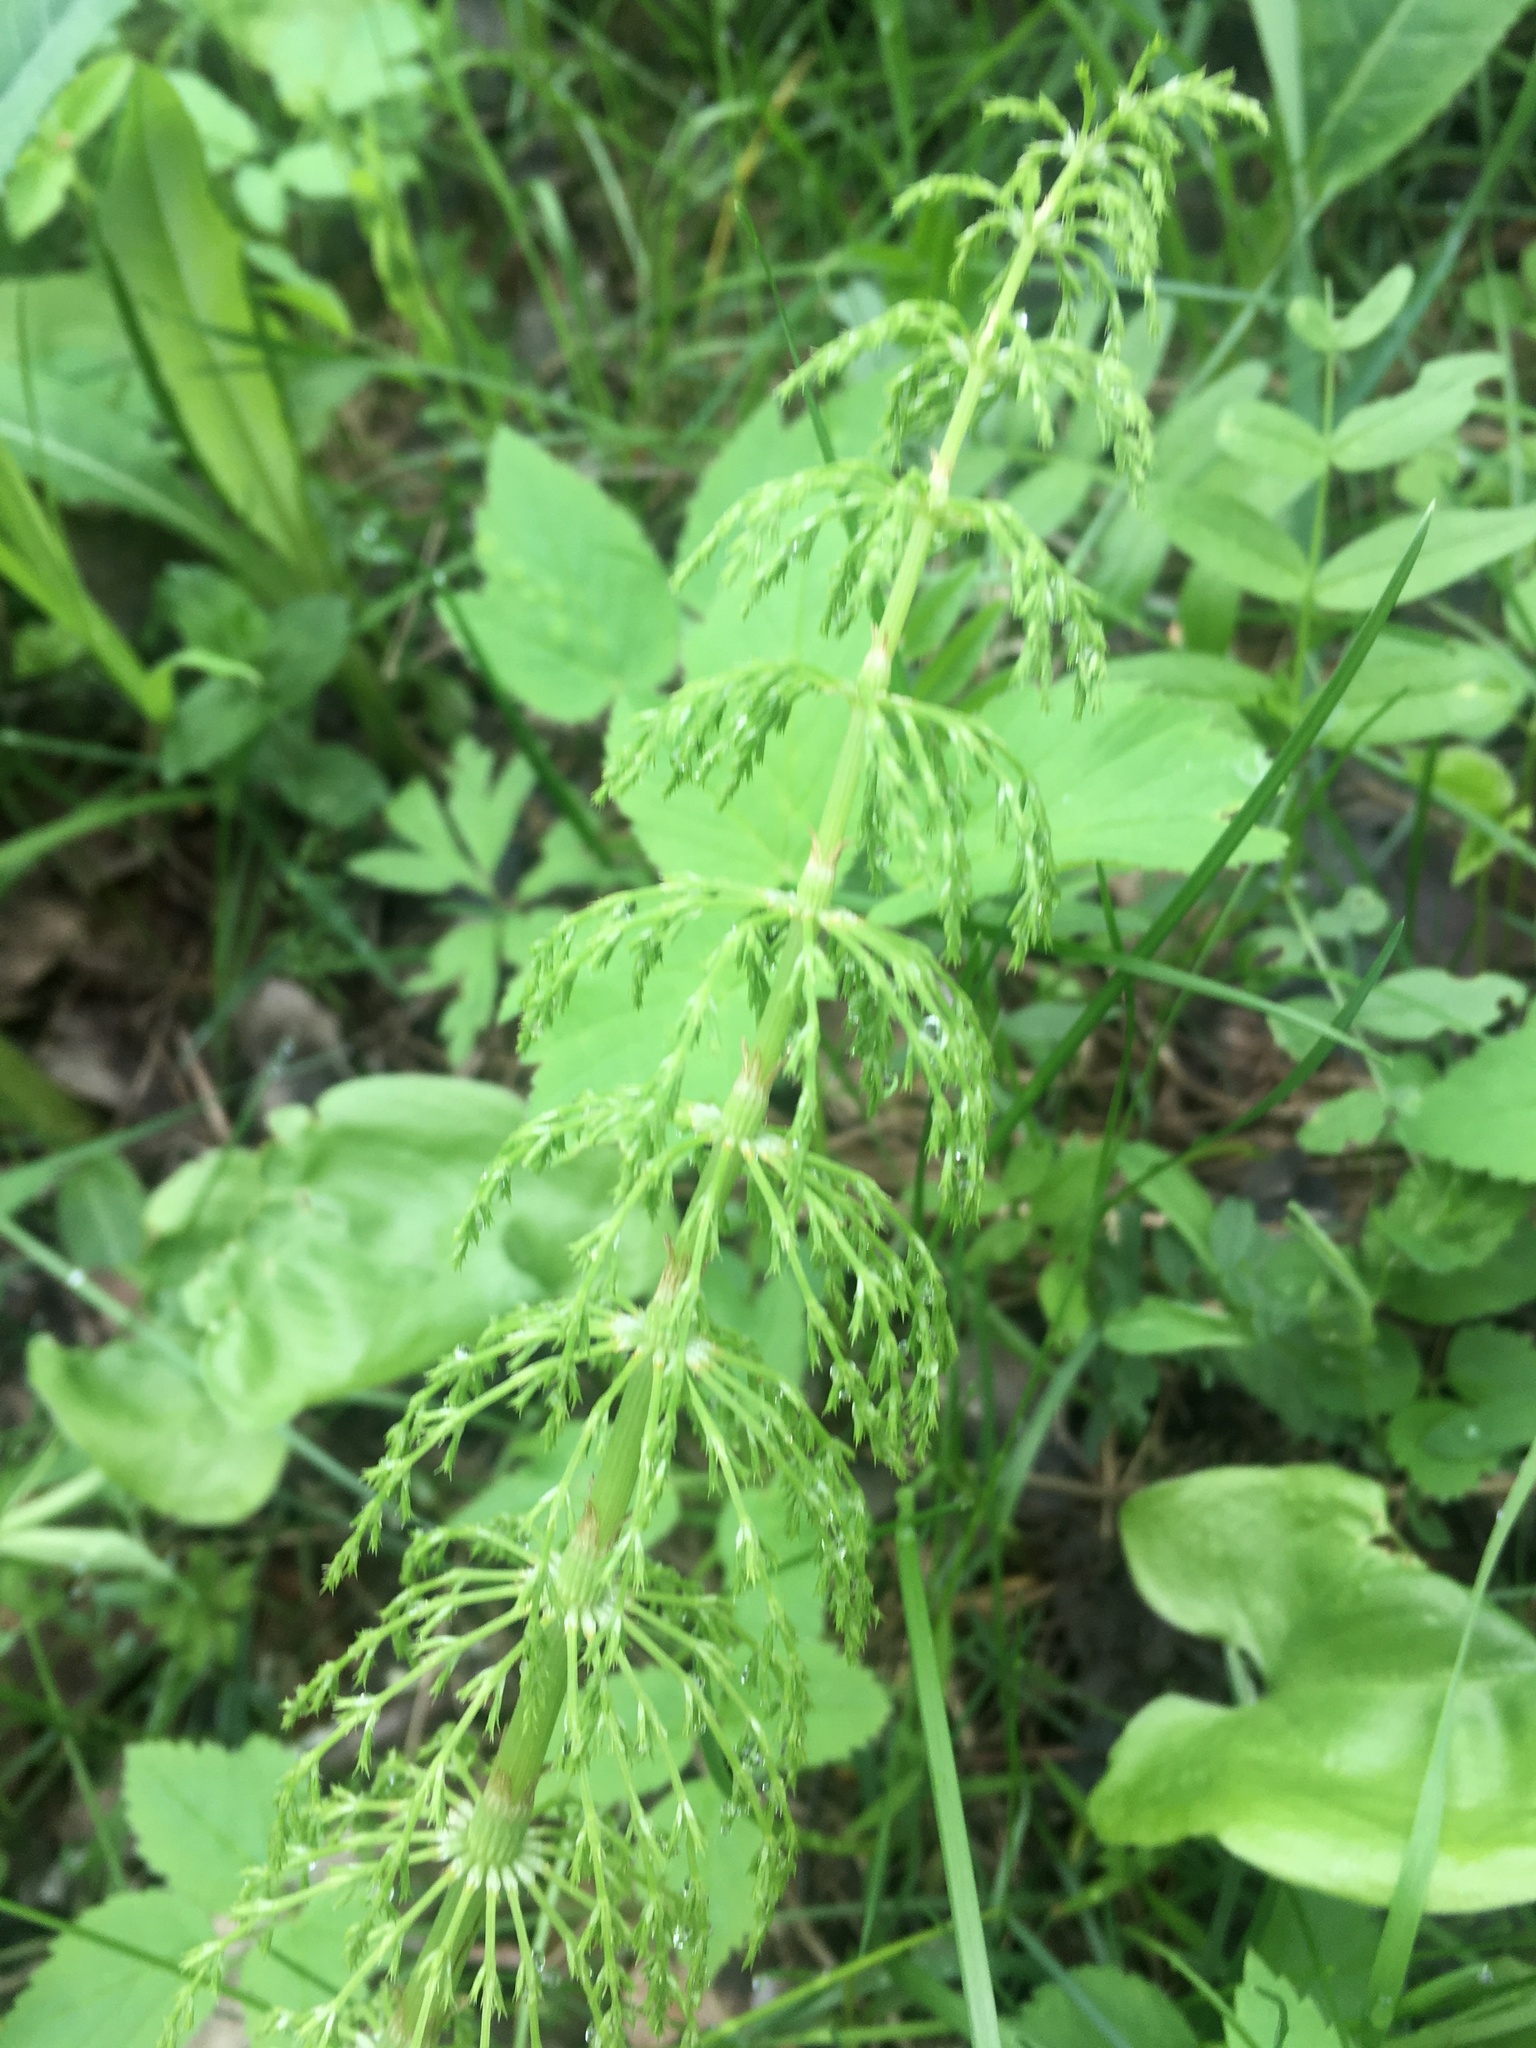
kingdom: Plantae
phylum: Tracheophyta
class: Polypodiopsida
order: Equisetales
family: Equisetaceae
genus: Equisetum
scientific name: Equisetum sylvaticum
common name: Wood horsetail
